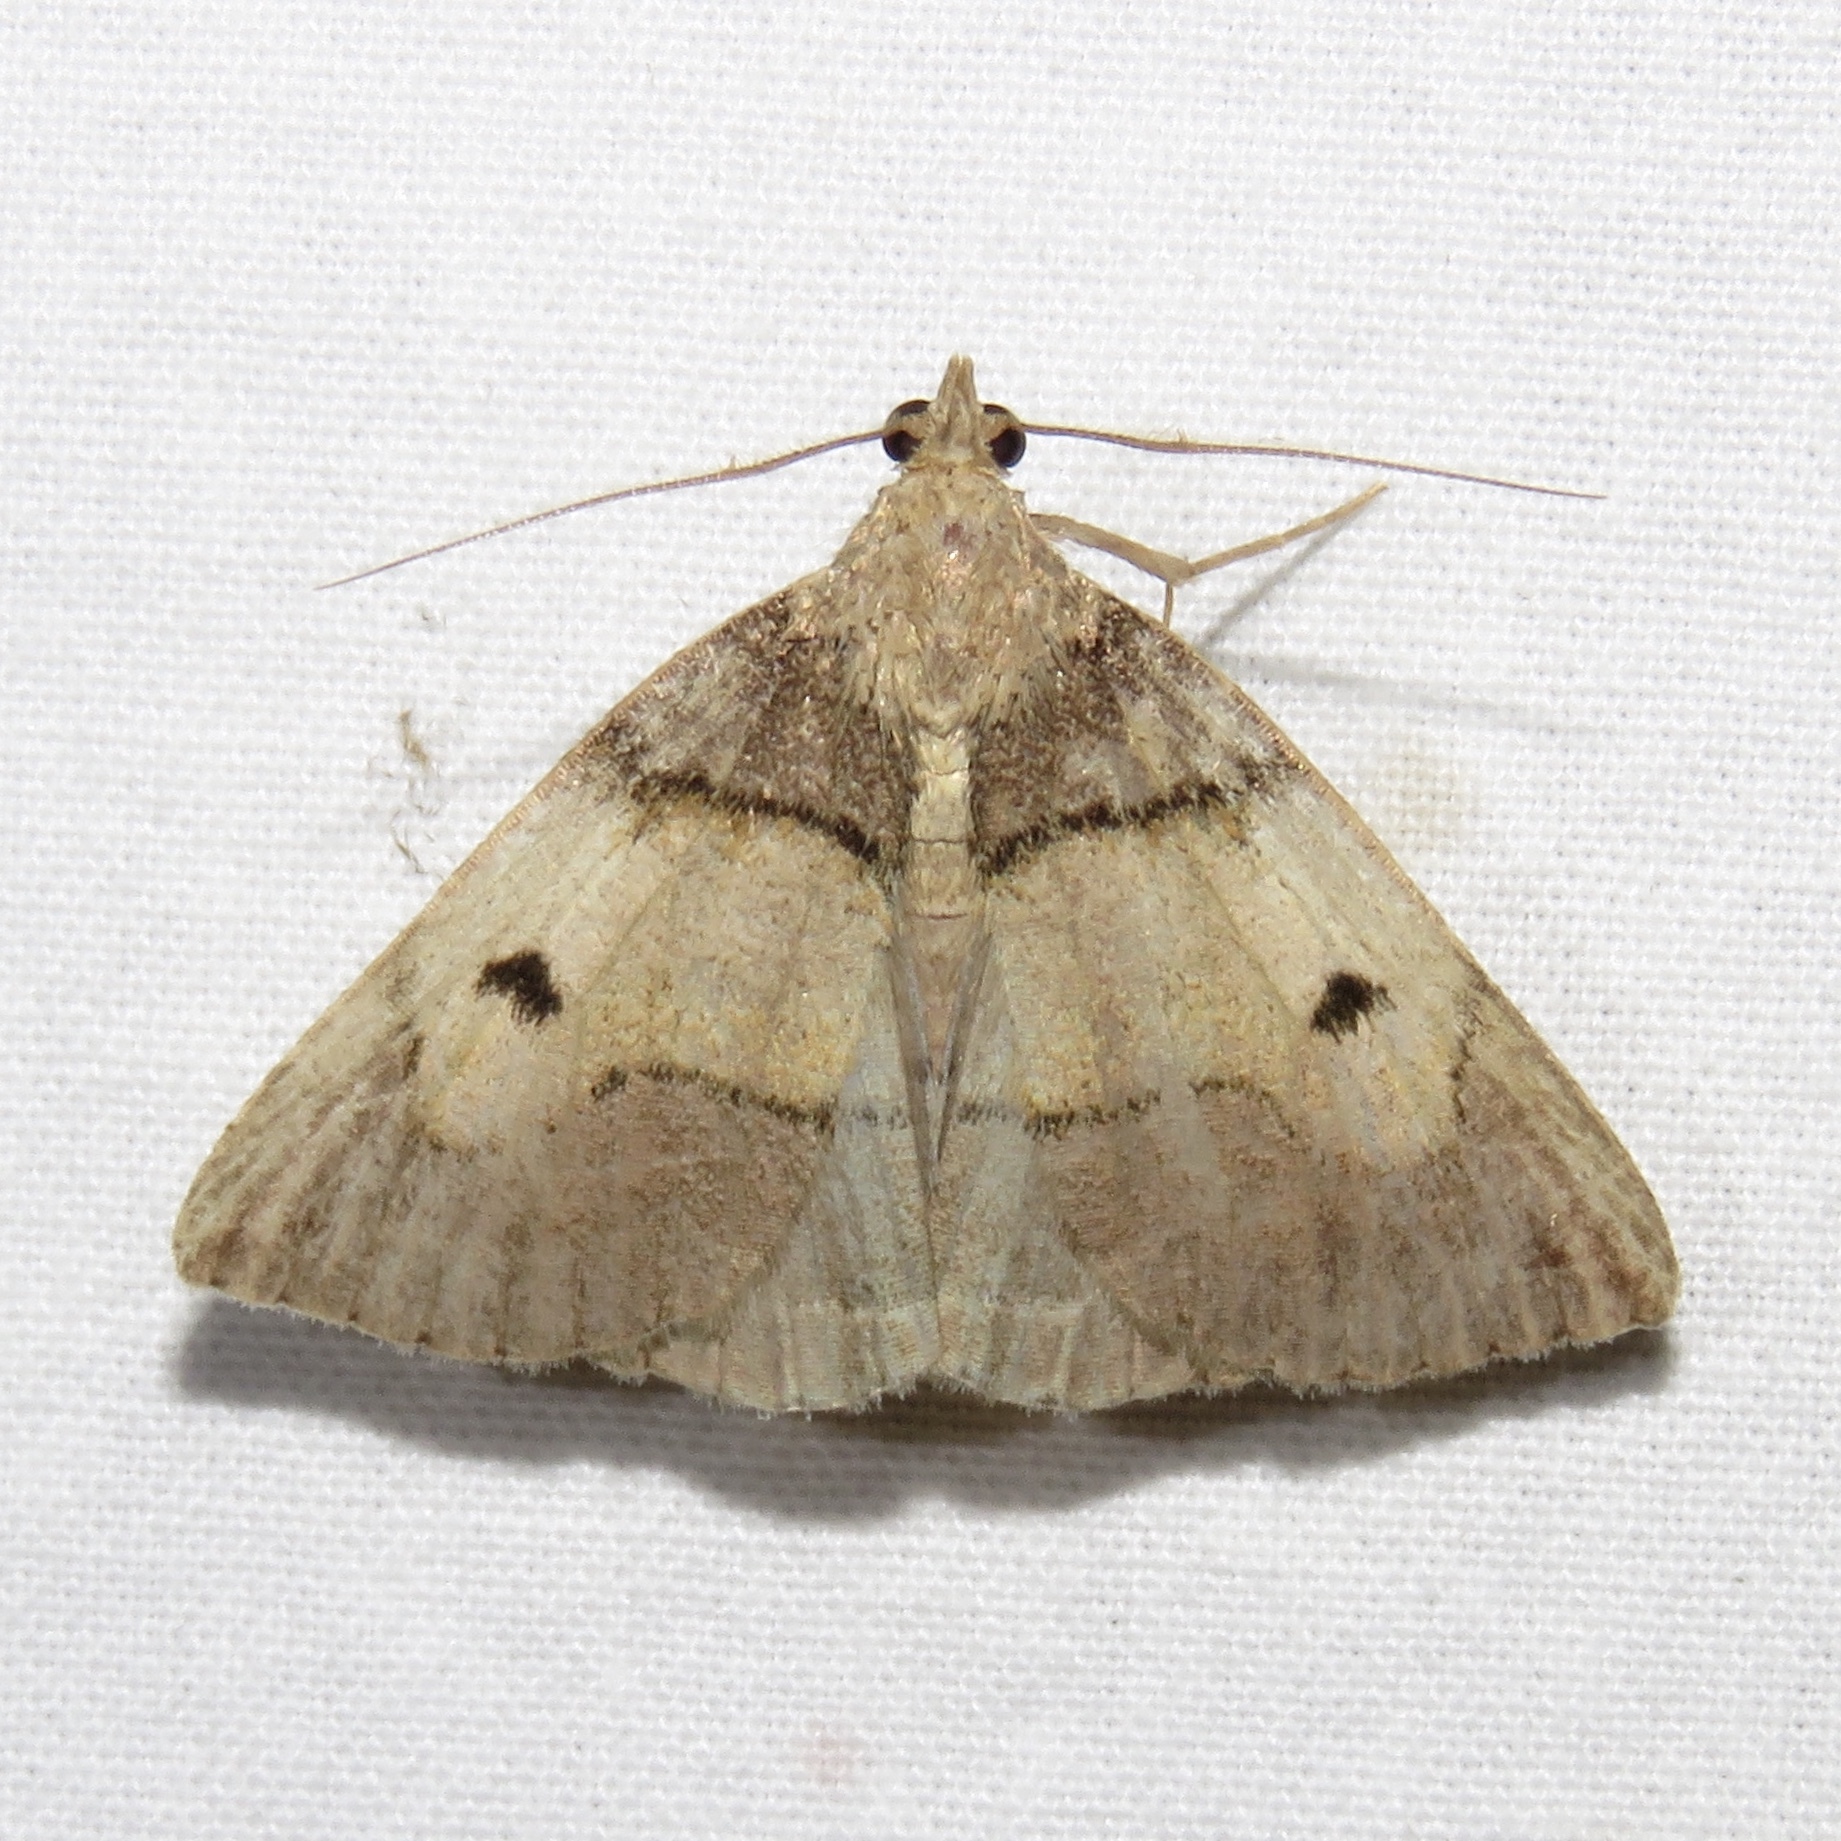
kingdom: Animalia
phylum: Arthropoda
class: Insecta
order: Lepidoptera
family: Erebidae
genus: Zanclognatha
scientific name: Zanclognatha laevigata
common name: Variable fan-foot
